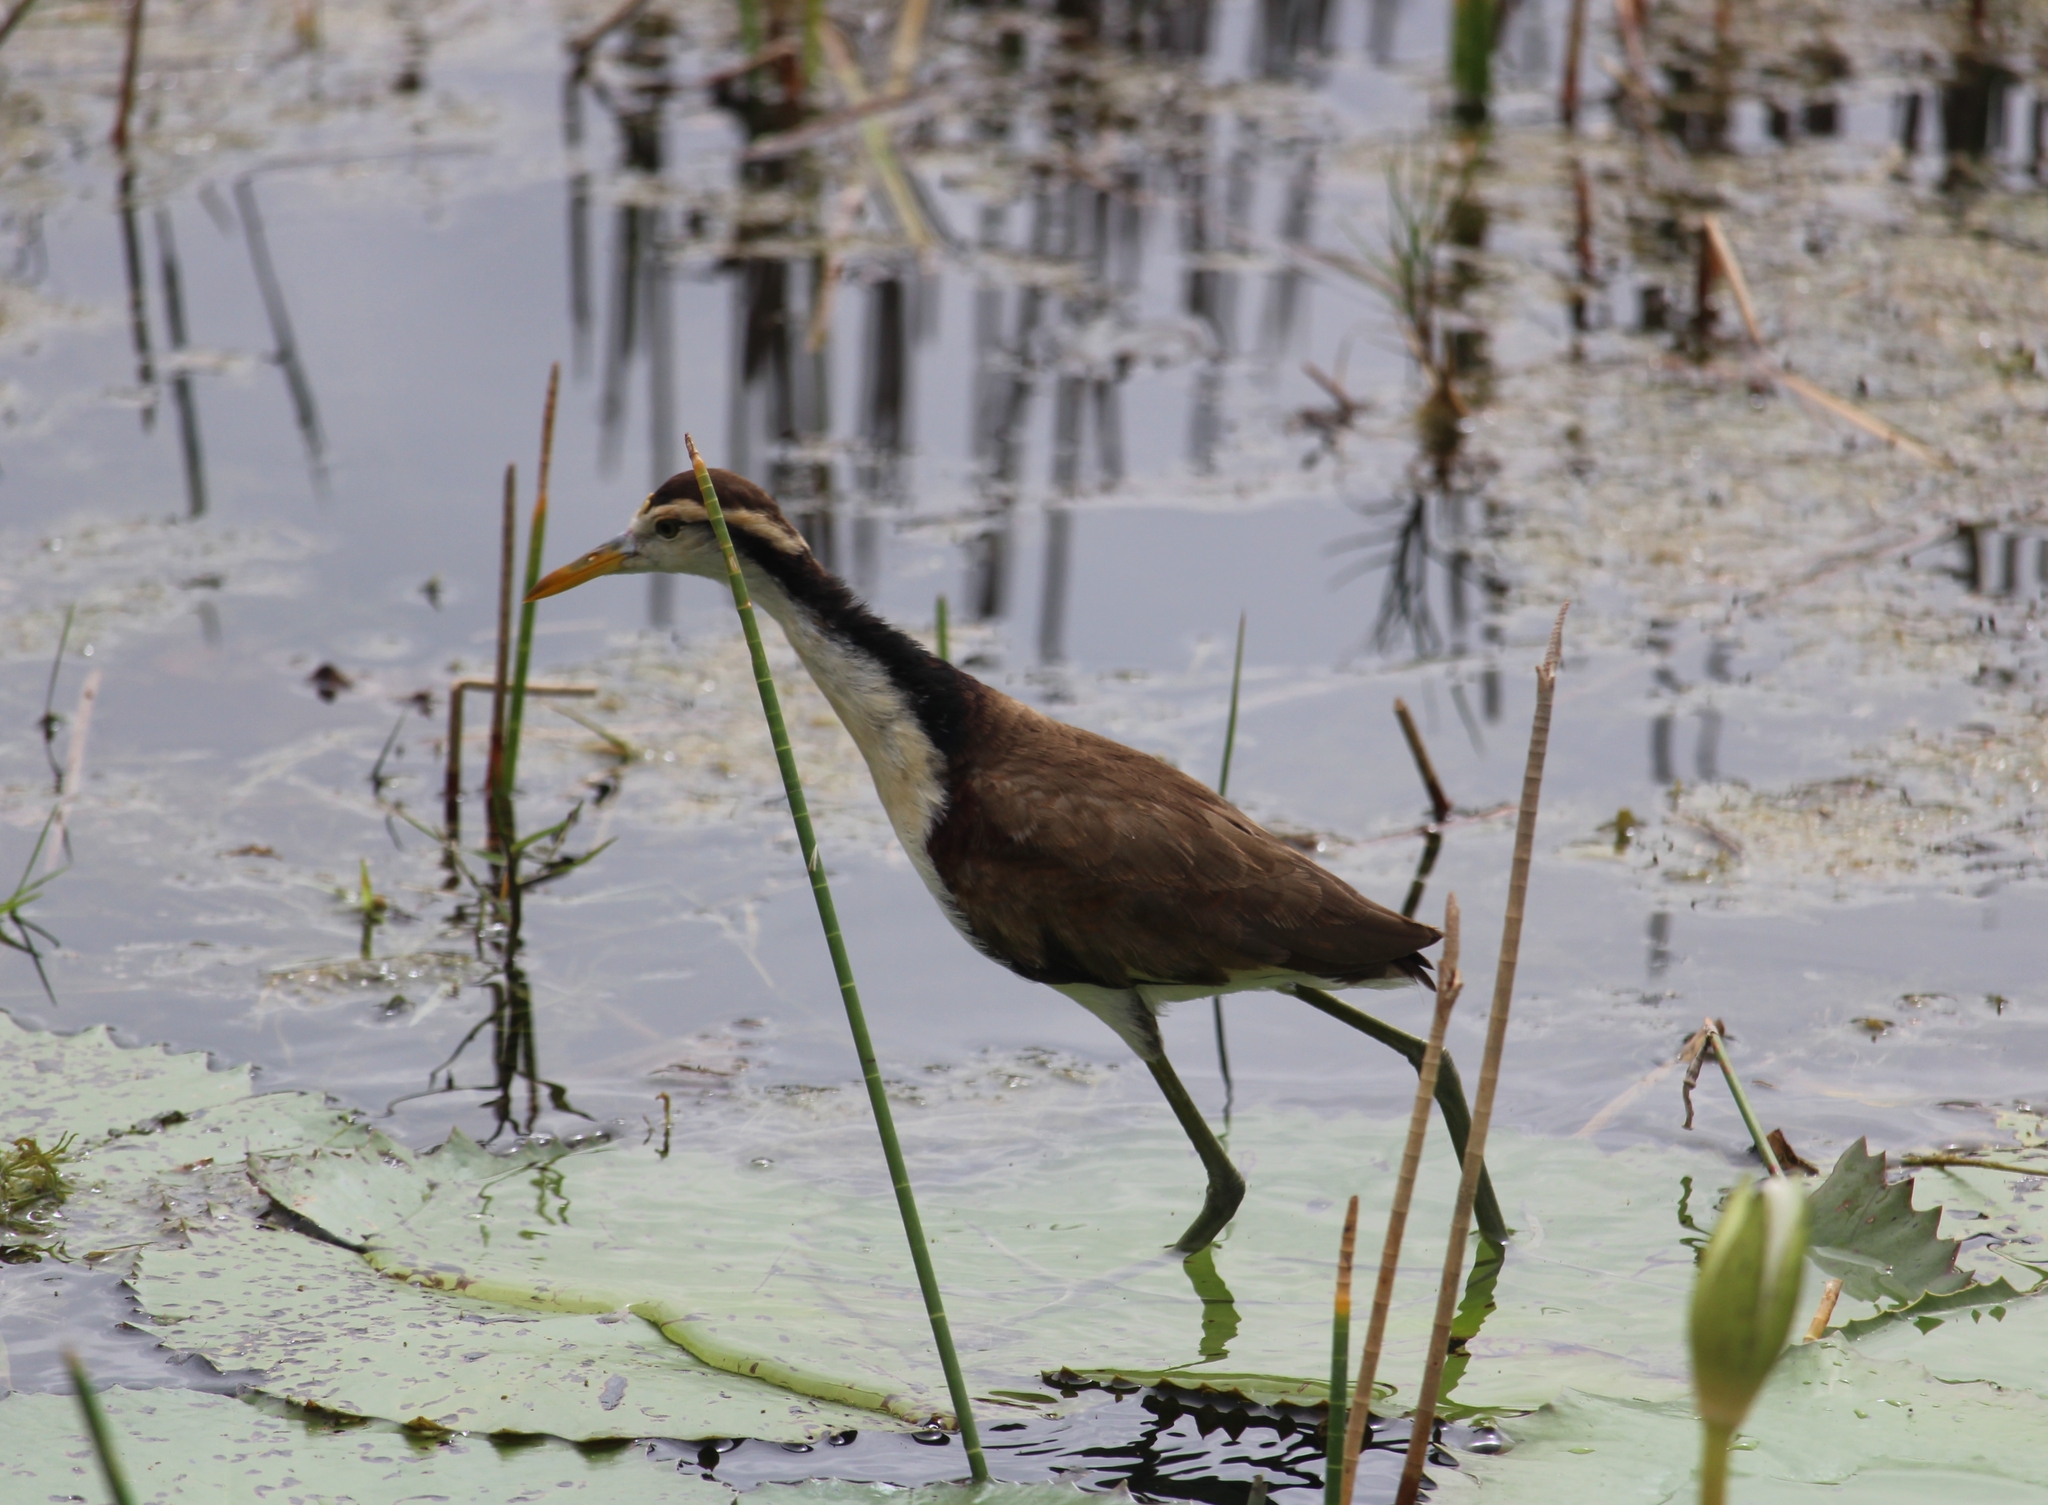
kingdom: Animalia
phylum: Chordata
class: Aves
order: Charadriiformes
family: Jacanidae
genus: Jacana
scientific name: Jacana spinosa
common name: Northern jacana
